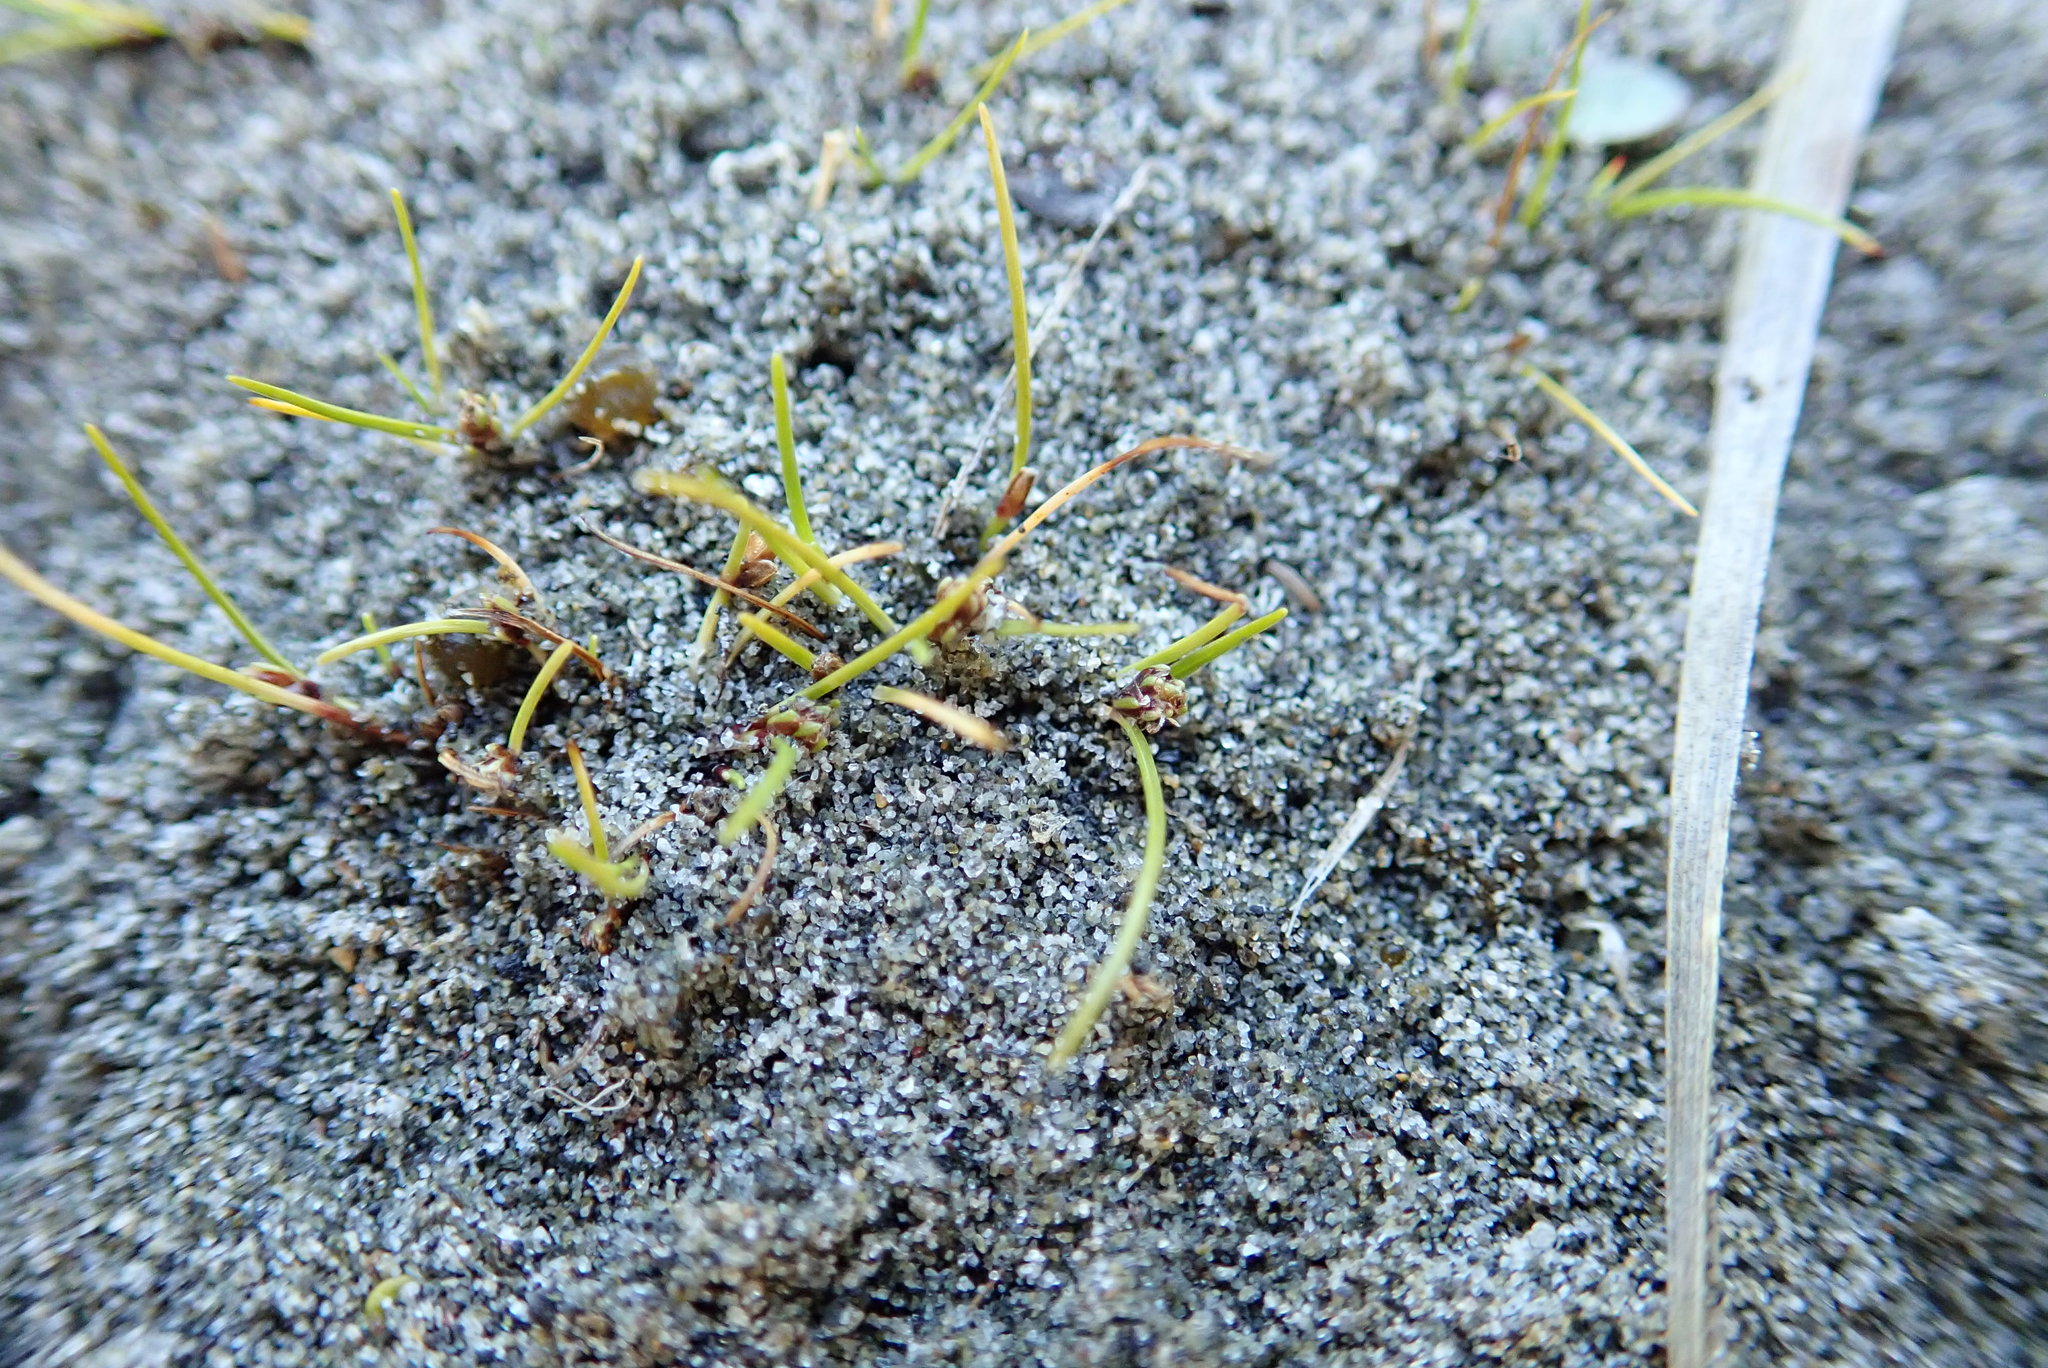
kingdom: Plantae
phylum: Tracheophyta
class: Liliopsida
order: Poales
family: Cyperaceae
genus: Isolepis
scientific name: Isolepis basilaris
